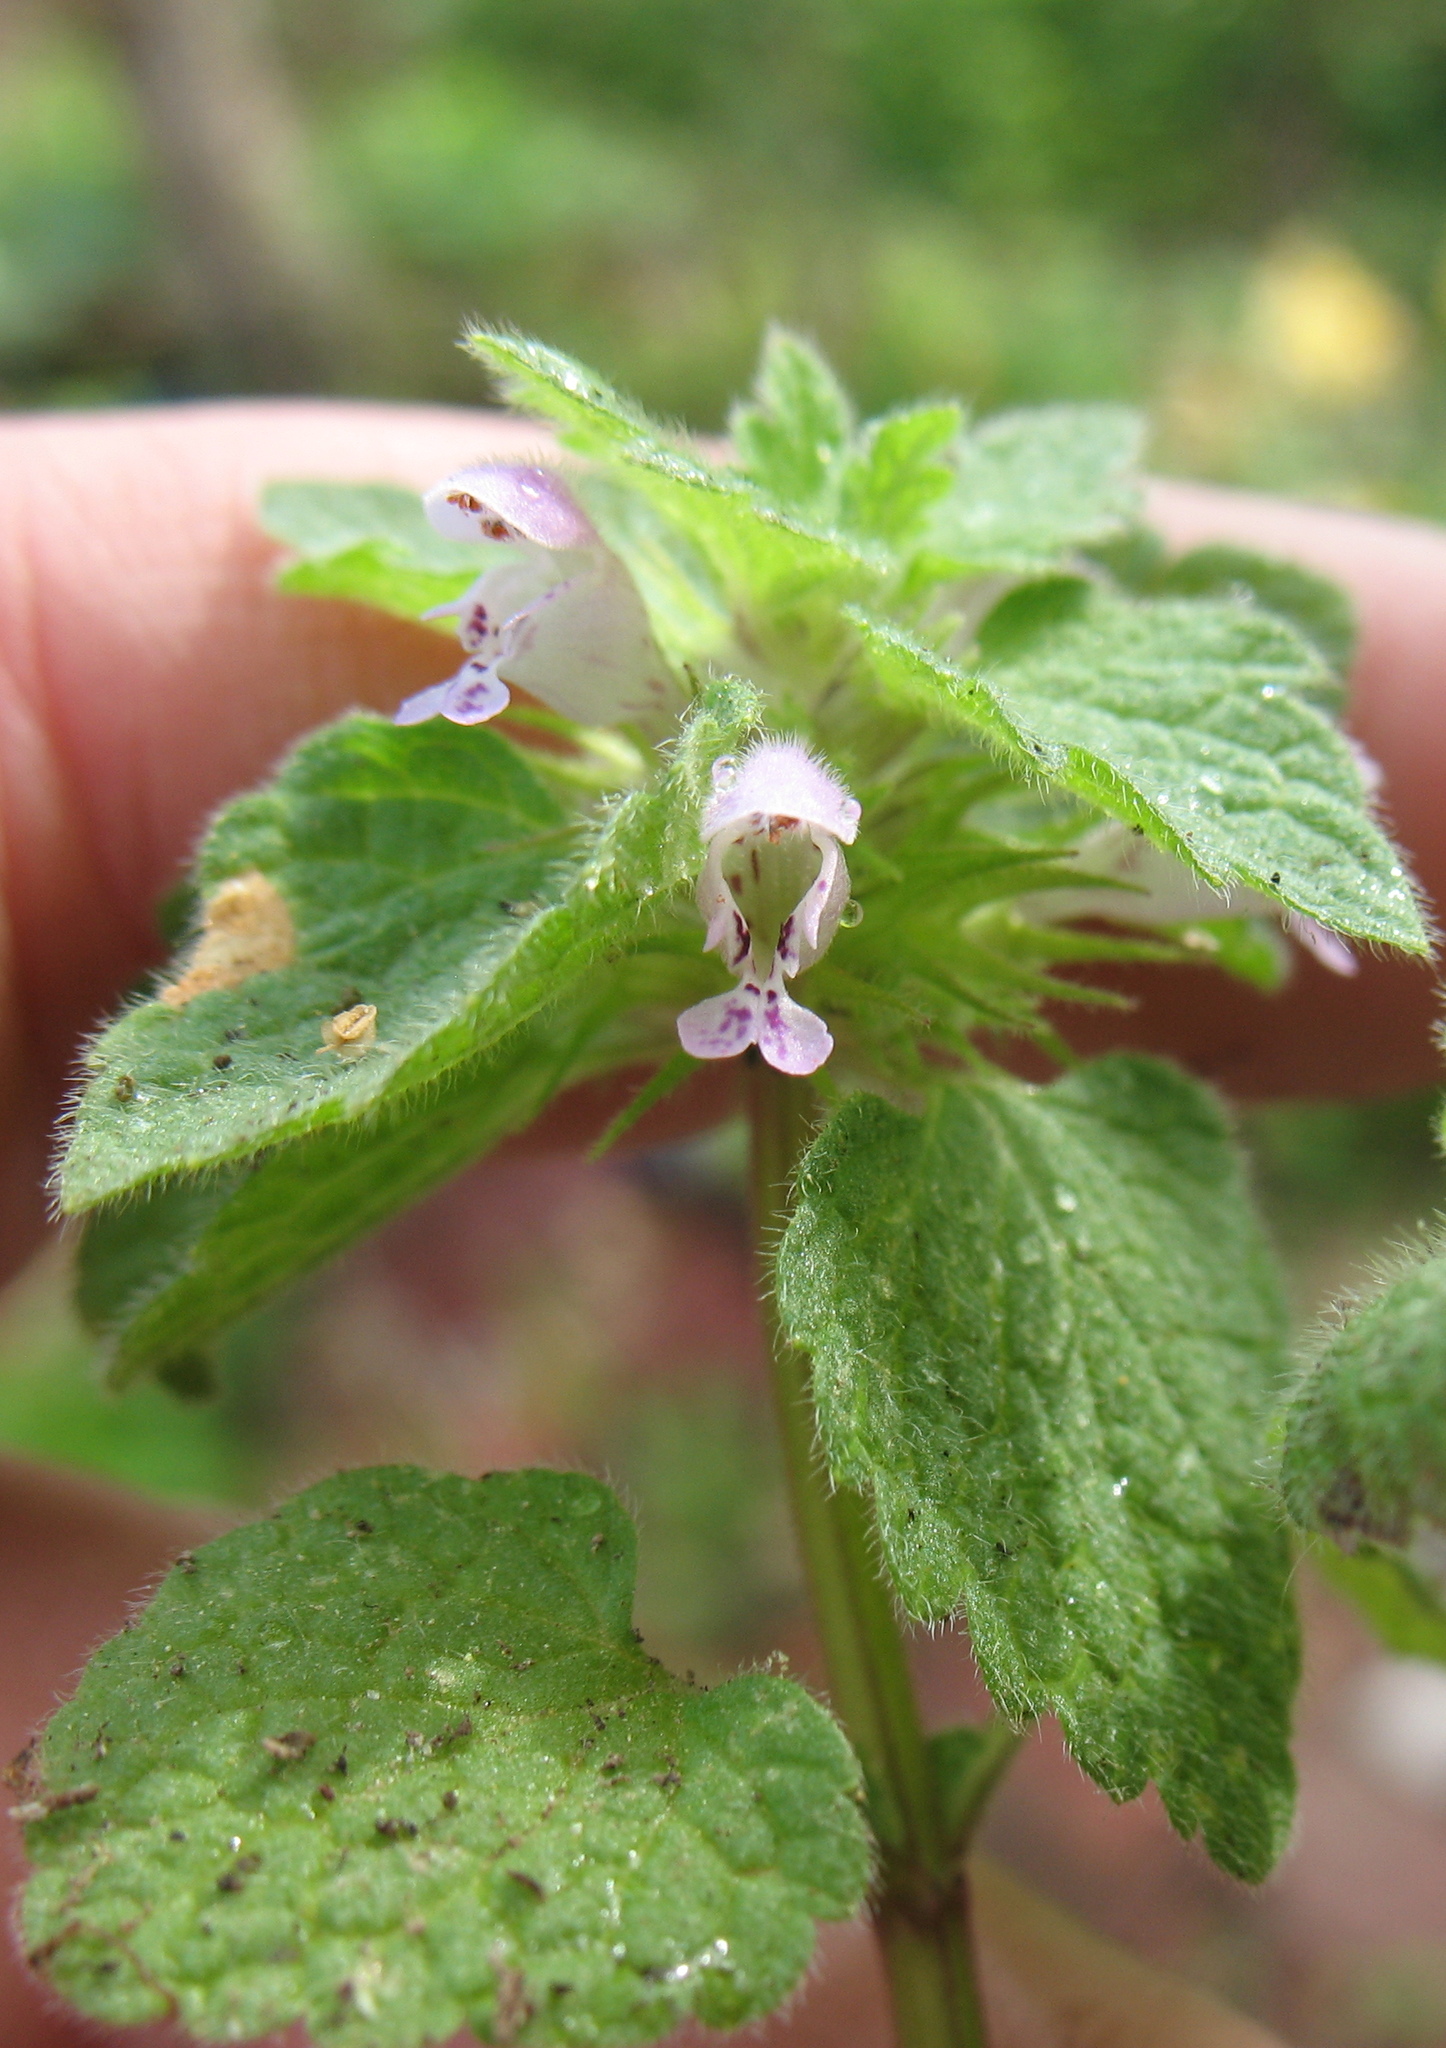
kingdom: Plantae
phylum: Tracheophyta
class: Magnoliopsida
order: Lamiales
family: Lamiaceae
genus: Lamium
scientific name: Lamium purpureum
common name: Red dead-nettle
